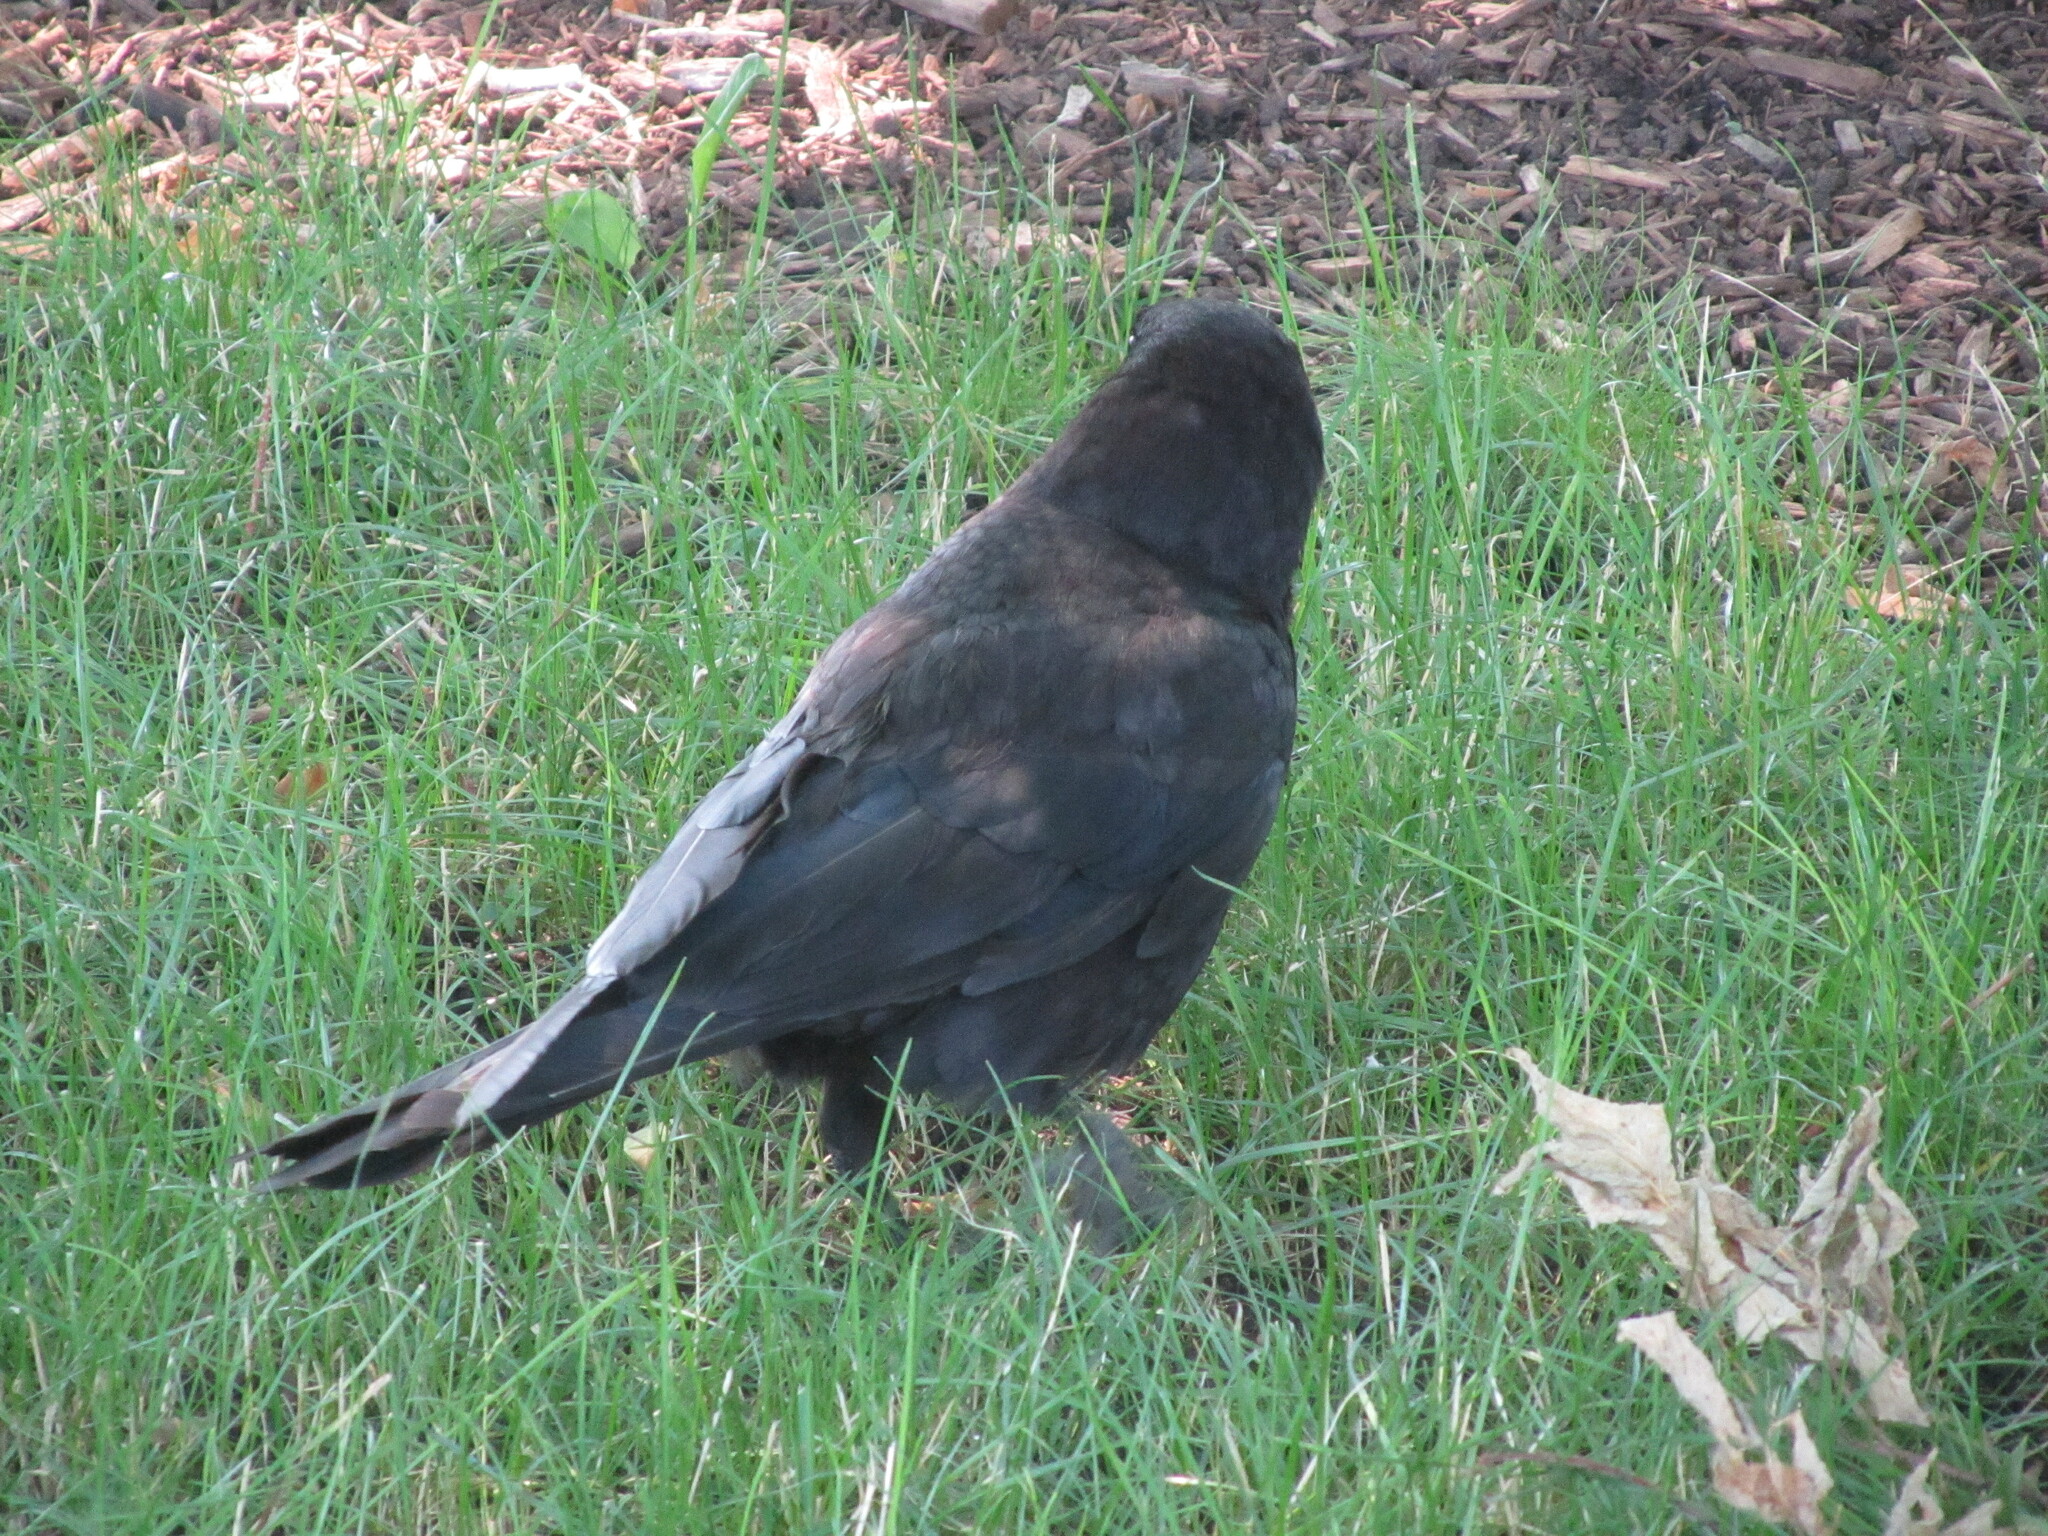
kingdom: Animalia
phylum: Chordata
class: Aves
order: Passeriformes
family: Corvidae
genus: Corvus
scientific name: Corvus brachyrhynchos
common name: American crow
